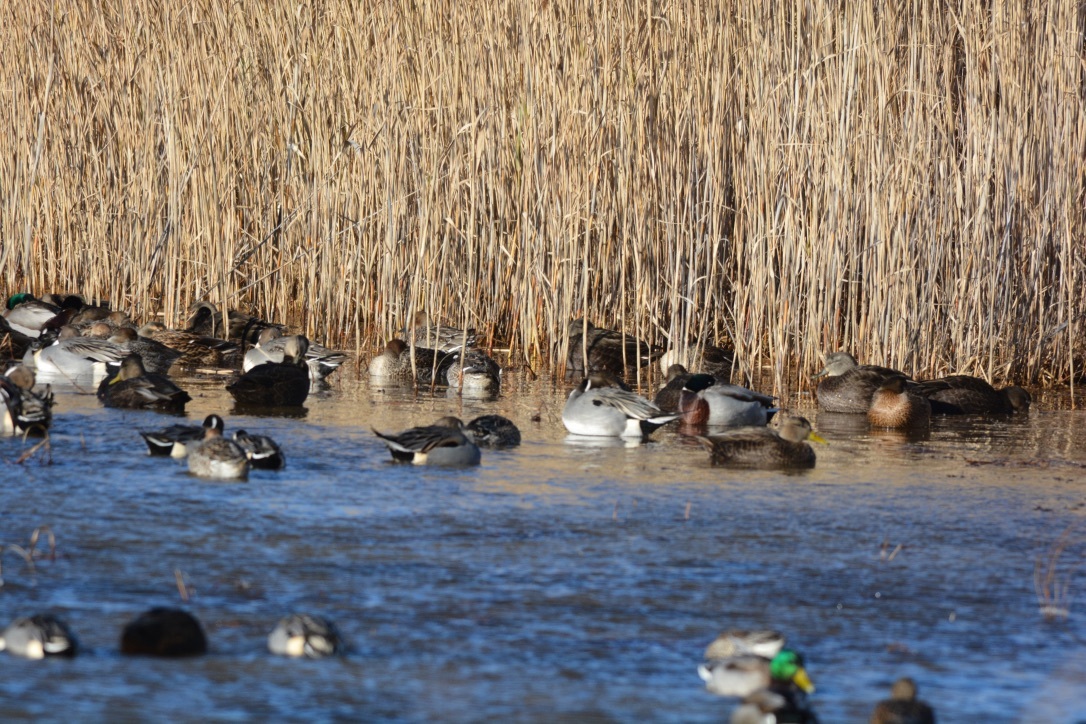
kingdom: Animalia
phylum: Chordata
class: Aves
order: Anseriformes
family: Anatidae
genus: Anas
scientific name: Anas acuta
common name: Northern pintail
